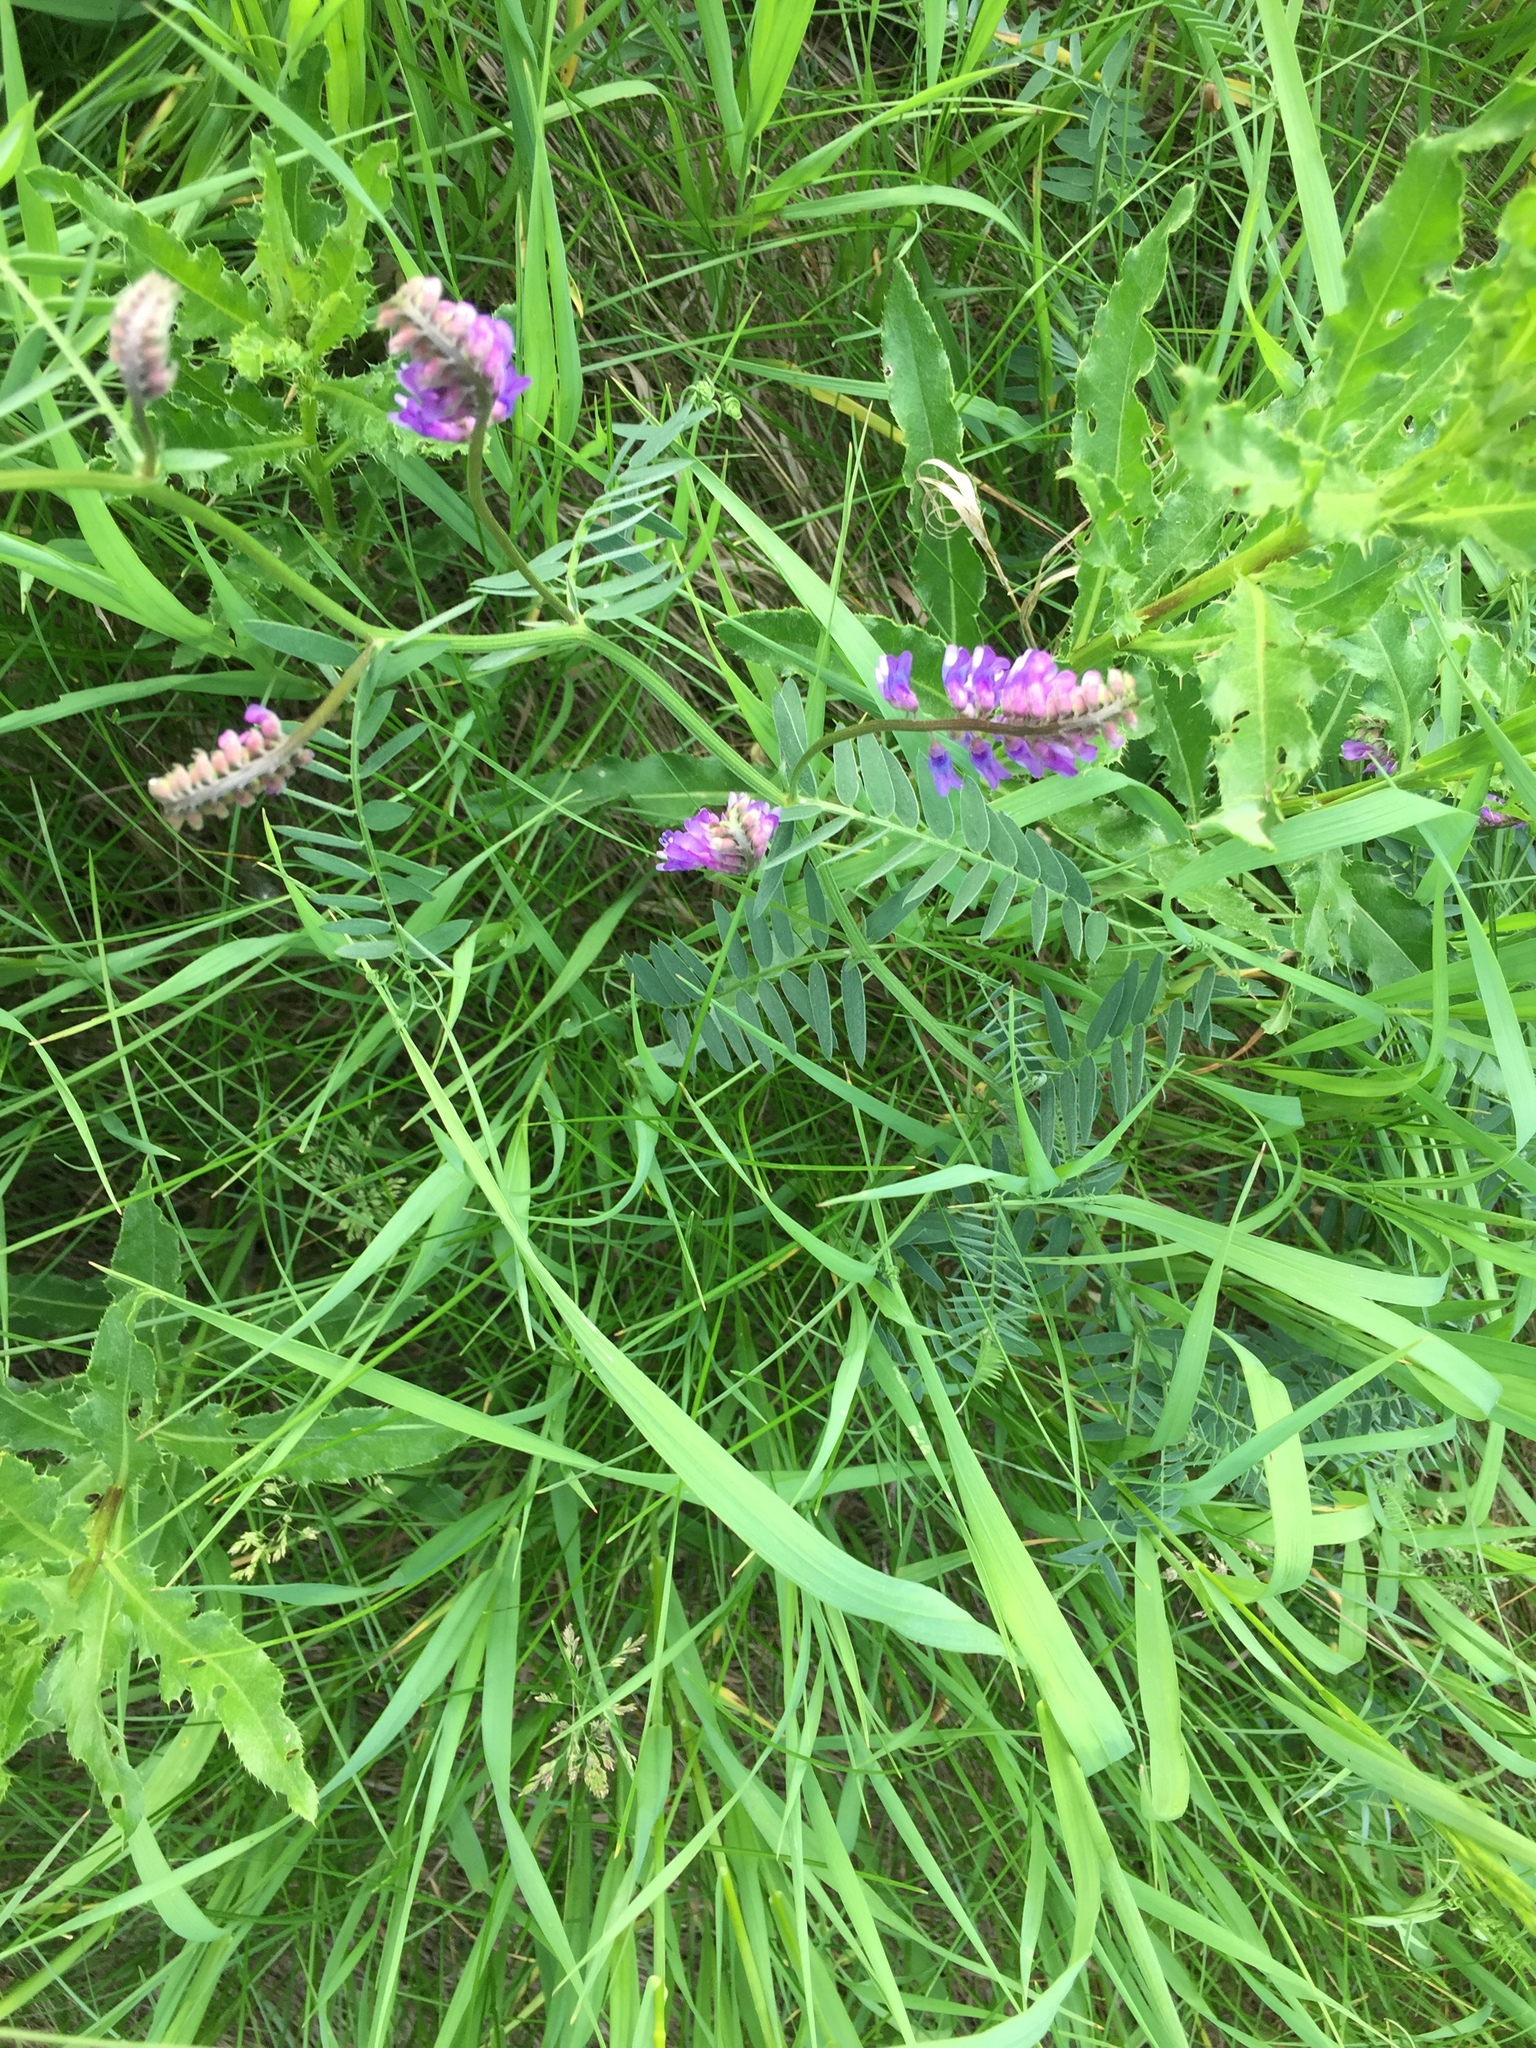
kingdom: Plantae
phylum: Tracheophyta
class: Magnoliopsida
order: Fabales
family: Fabaceae
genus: Vicia
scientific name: Vicia cracca
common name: Bird vetch
